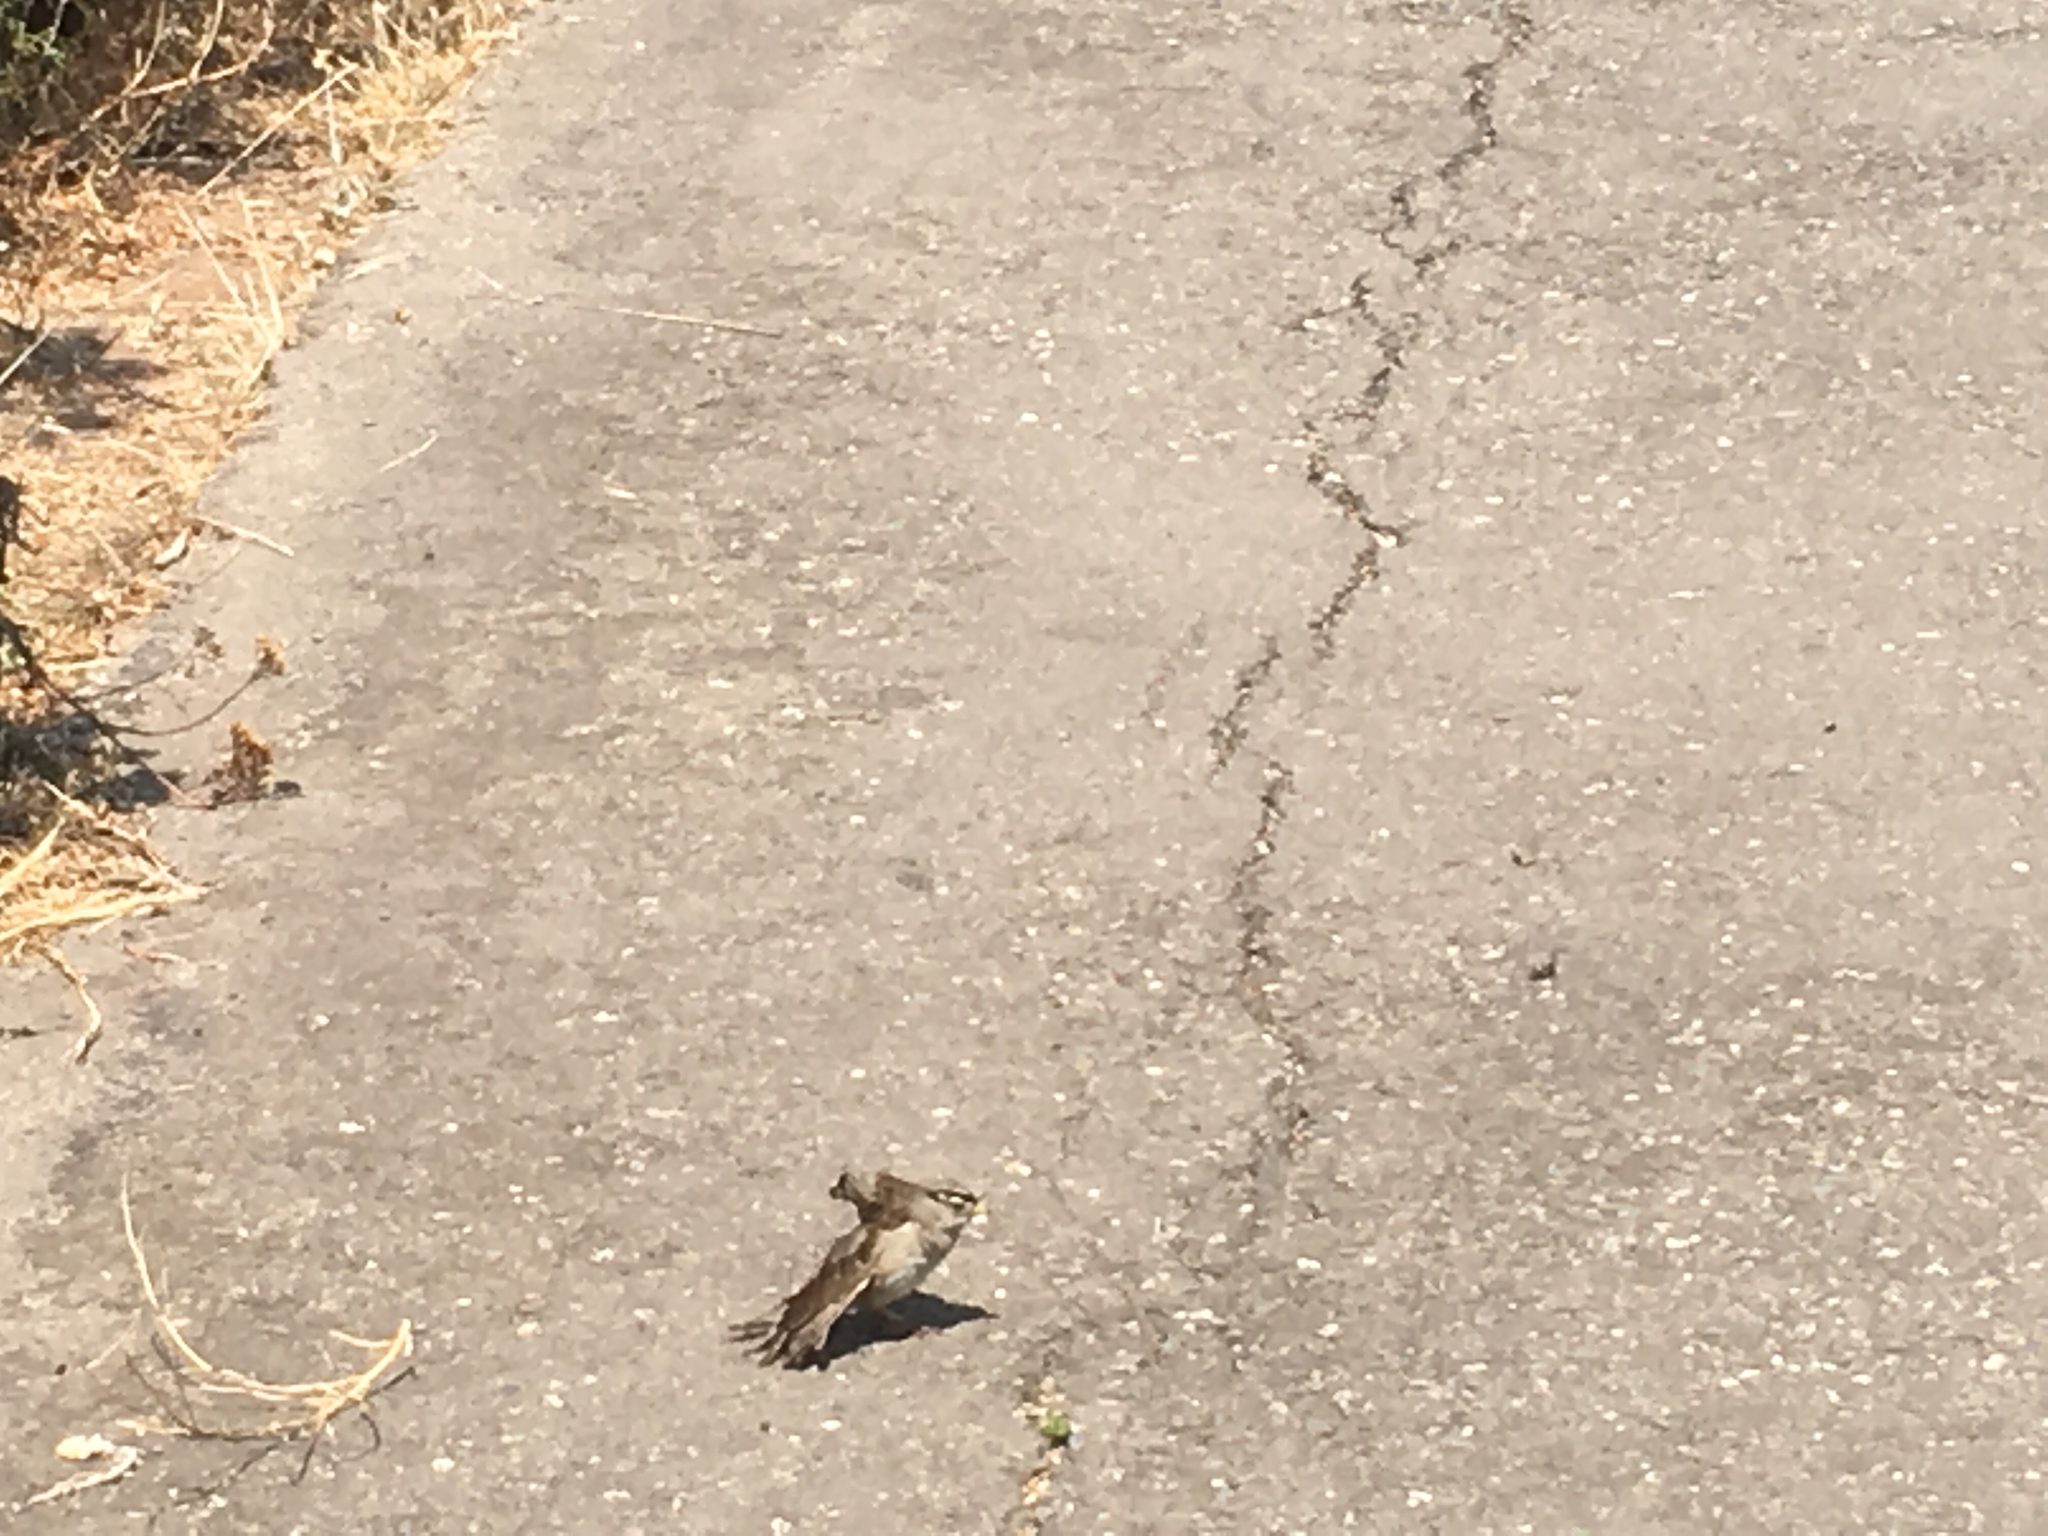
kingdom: Animalia
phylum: Chordata
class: Aves
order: Passeriformes
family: Passerellidae
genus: Zonotrichia
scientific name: Zonotrichia leucophrys
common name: White-crowned sparrow
